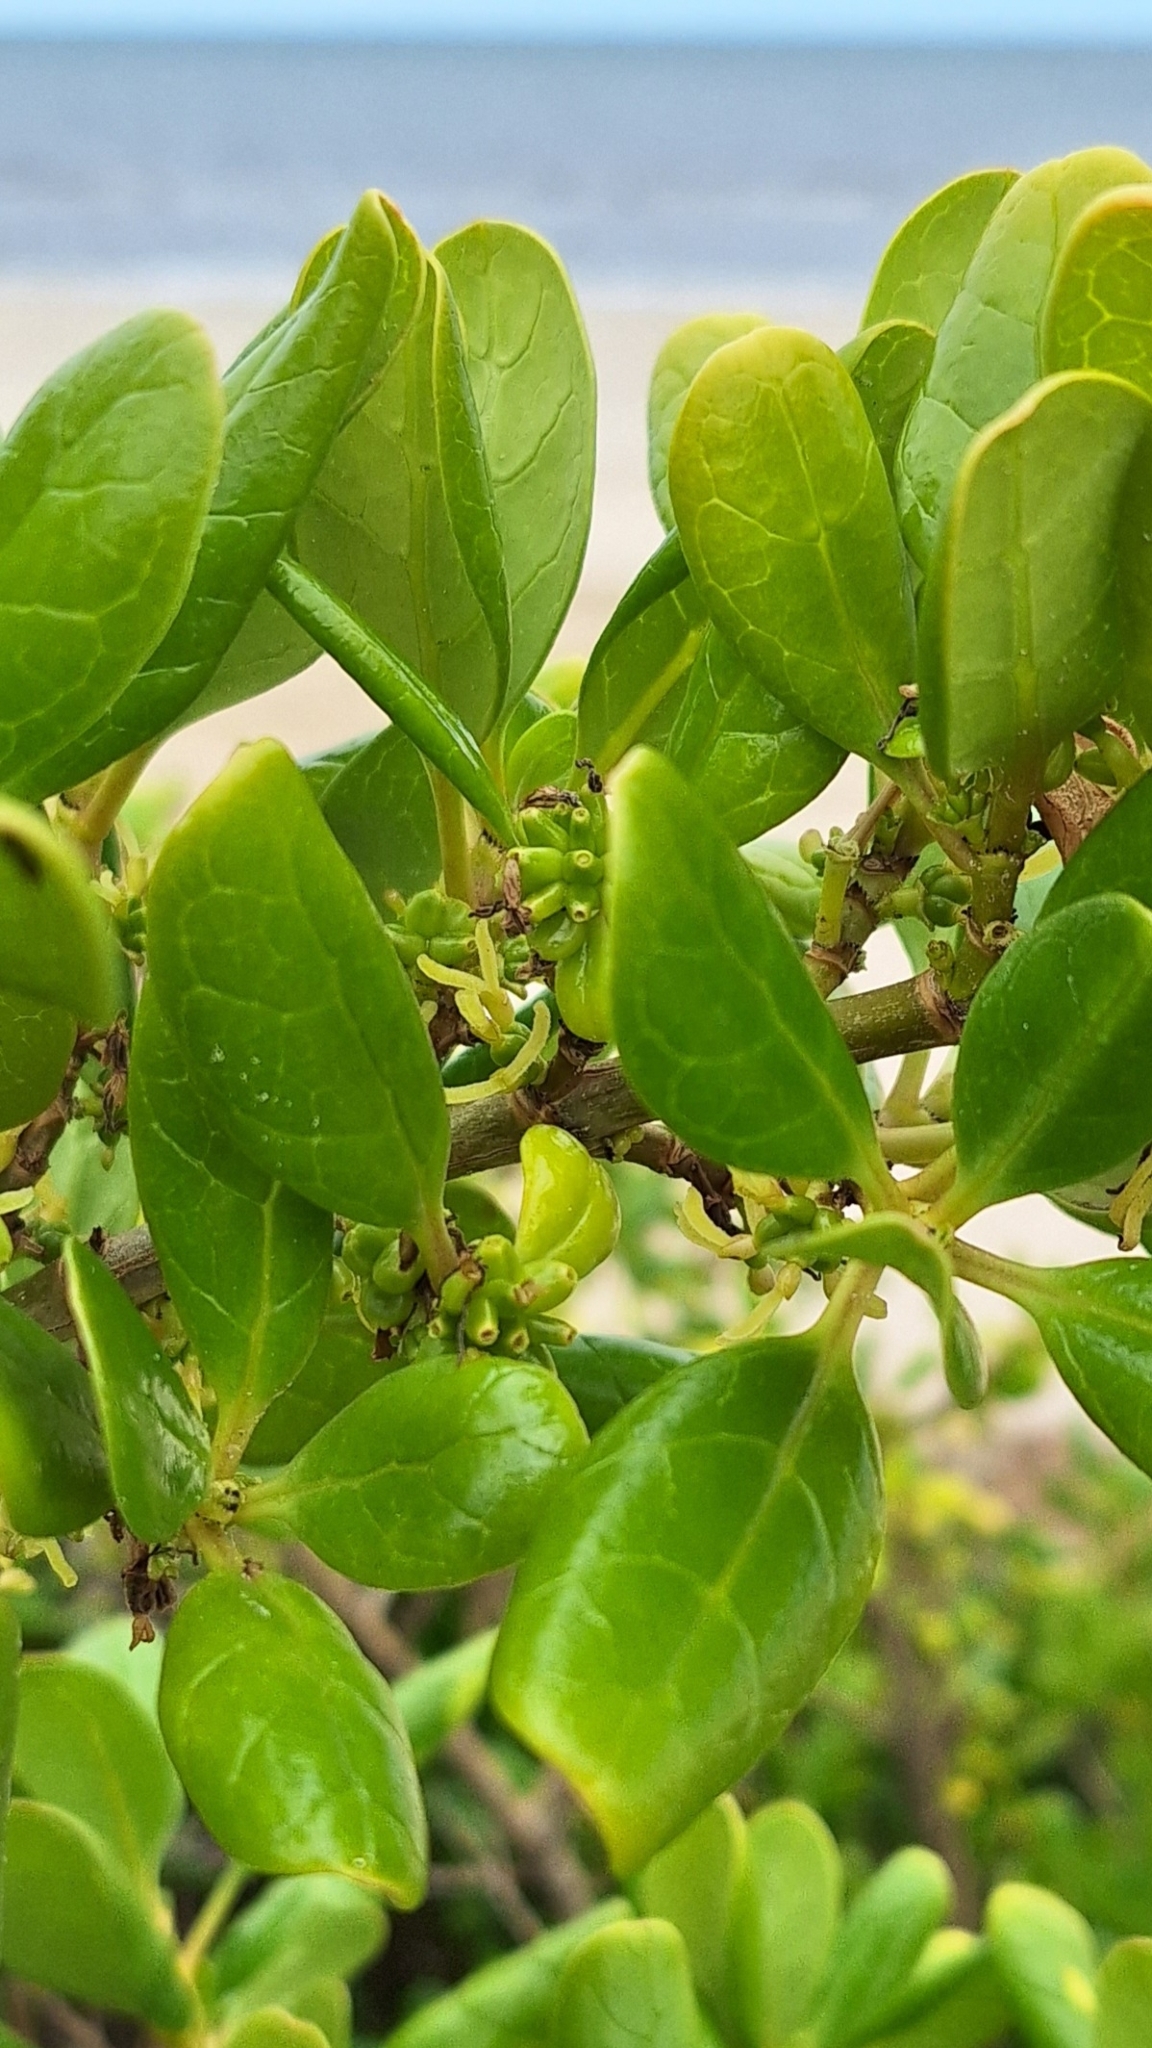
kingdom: Plantae
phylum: Tracheophyta
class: Magnoliopsida
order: Gentianales
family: Rubiaceae
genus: Coprosma
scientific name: Coprosma repens
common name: Tree bedstraw
